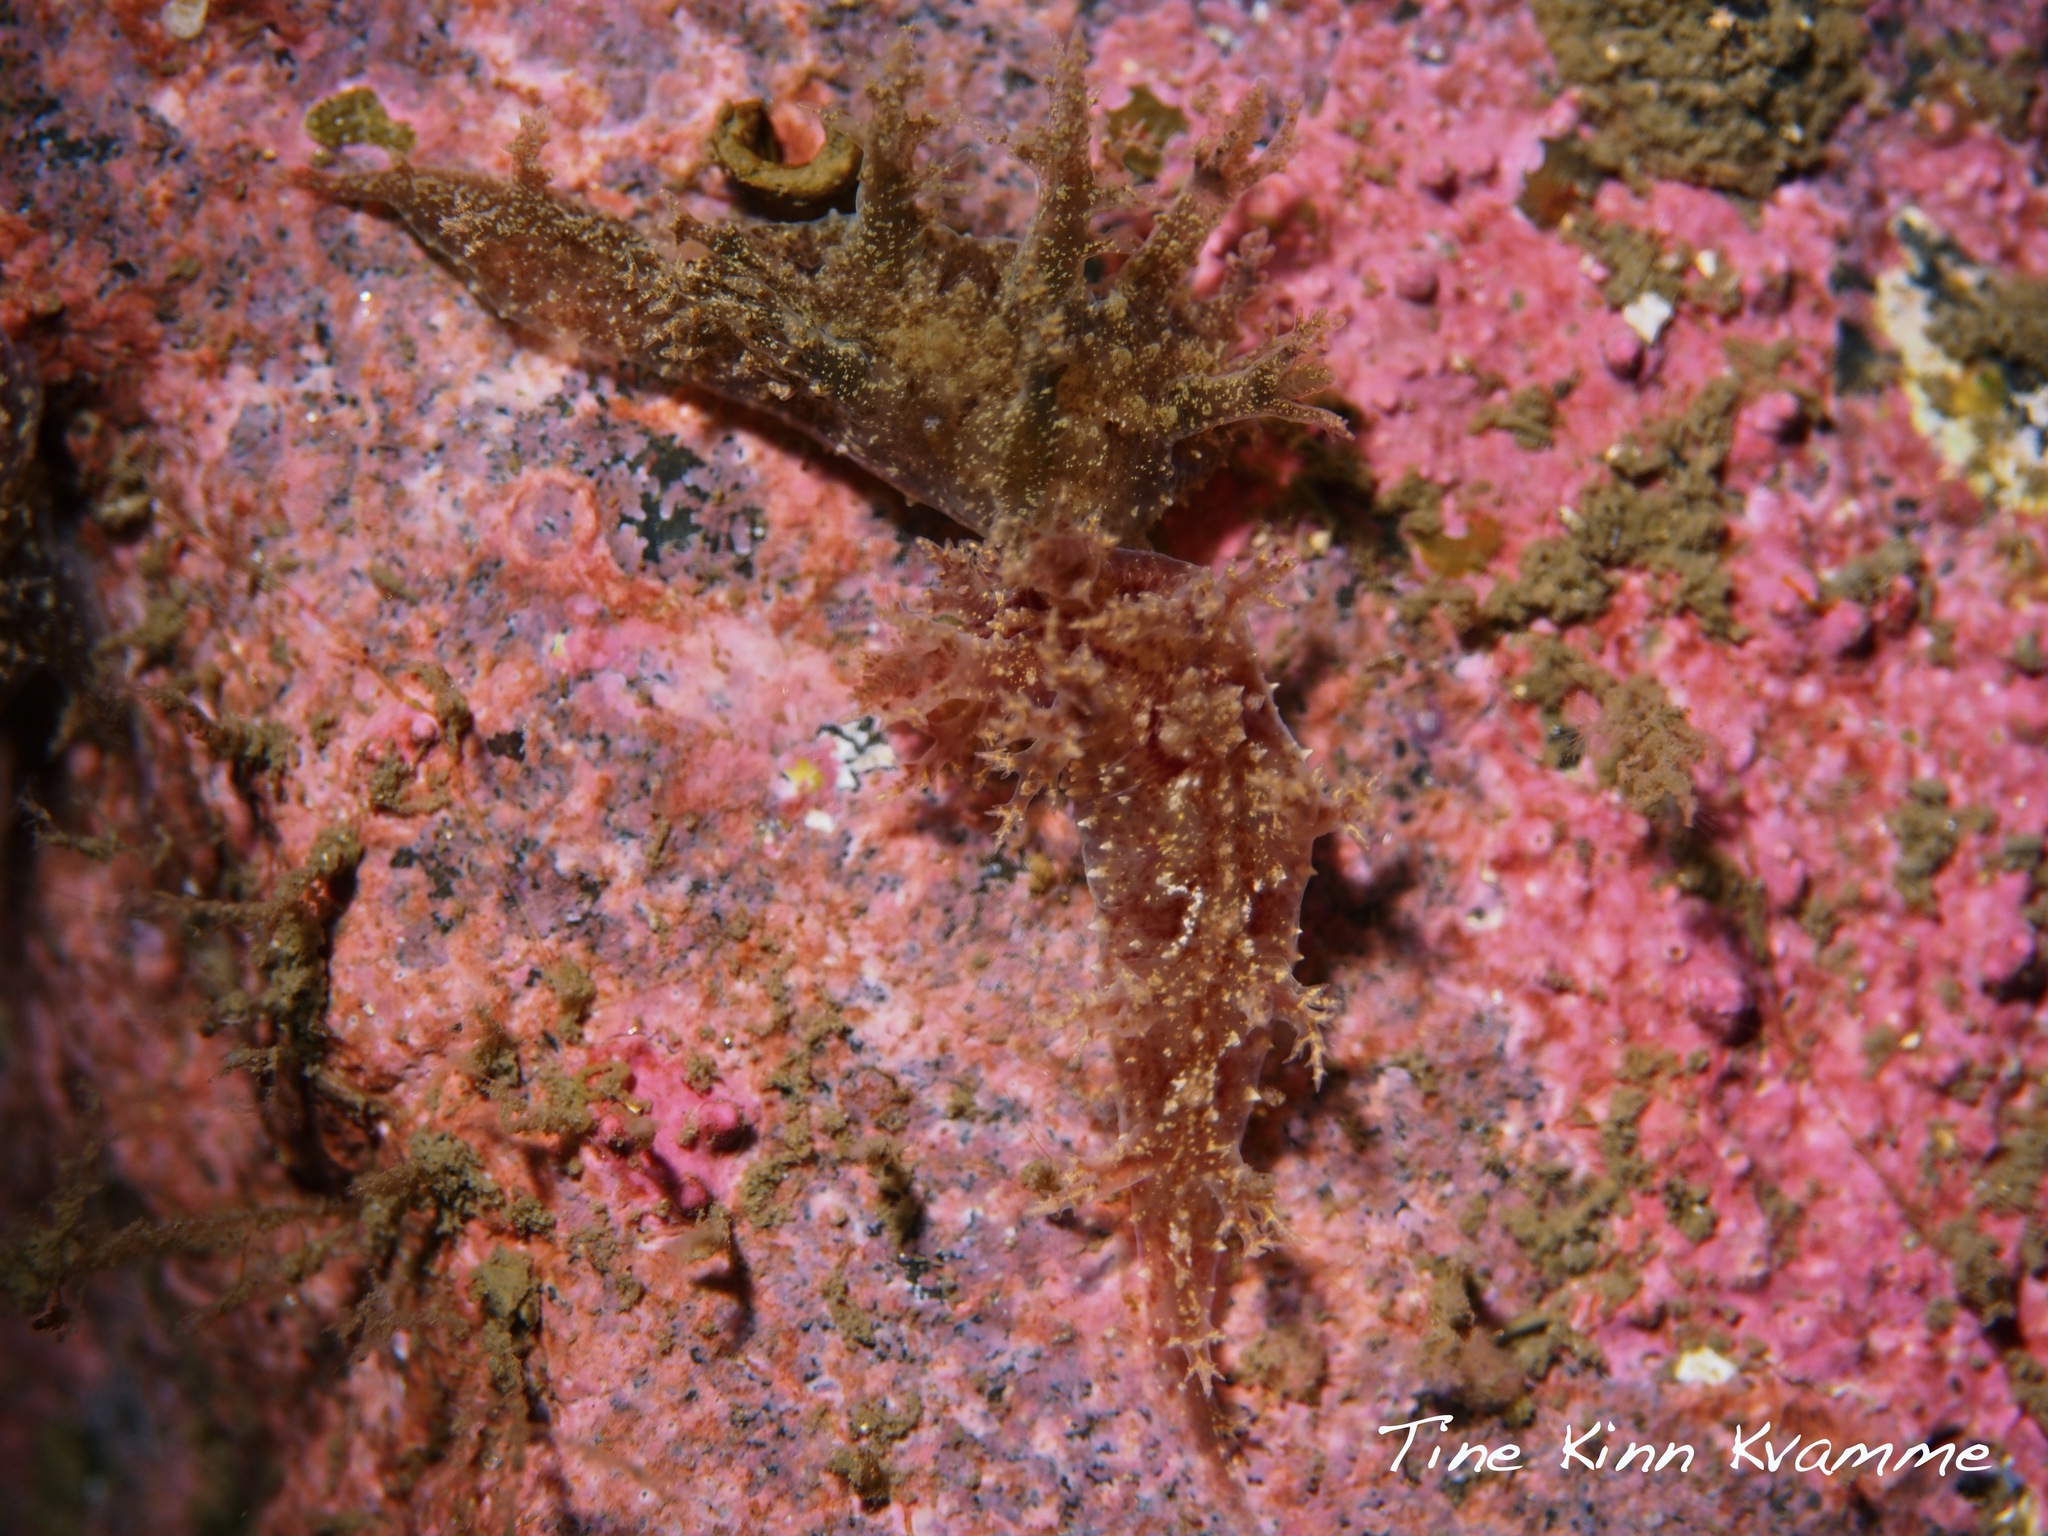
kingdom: Animalia
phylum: Mollusca
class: Gastropoda
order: Nudibranchia
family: Dendronotidae
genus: Dendronotus
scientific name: Dendronotus frondosus
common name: Bushy-backed nudibranch
